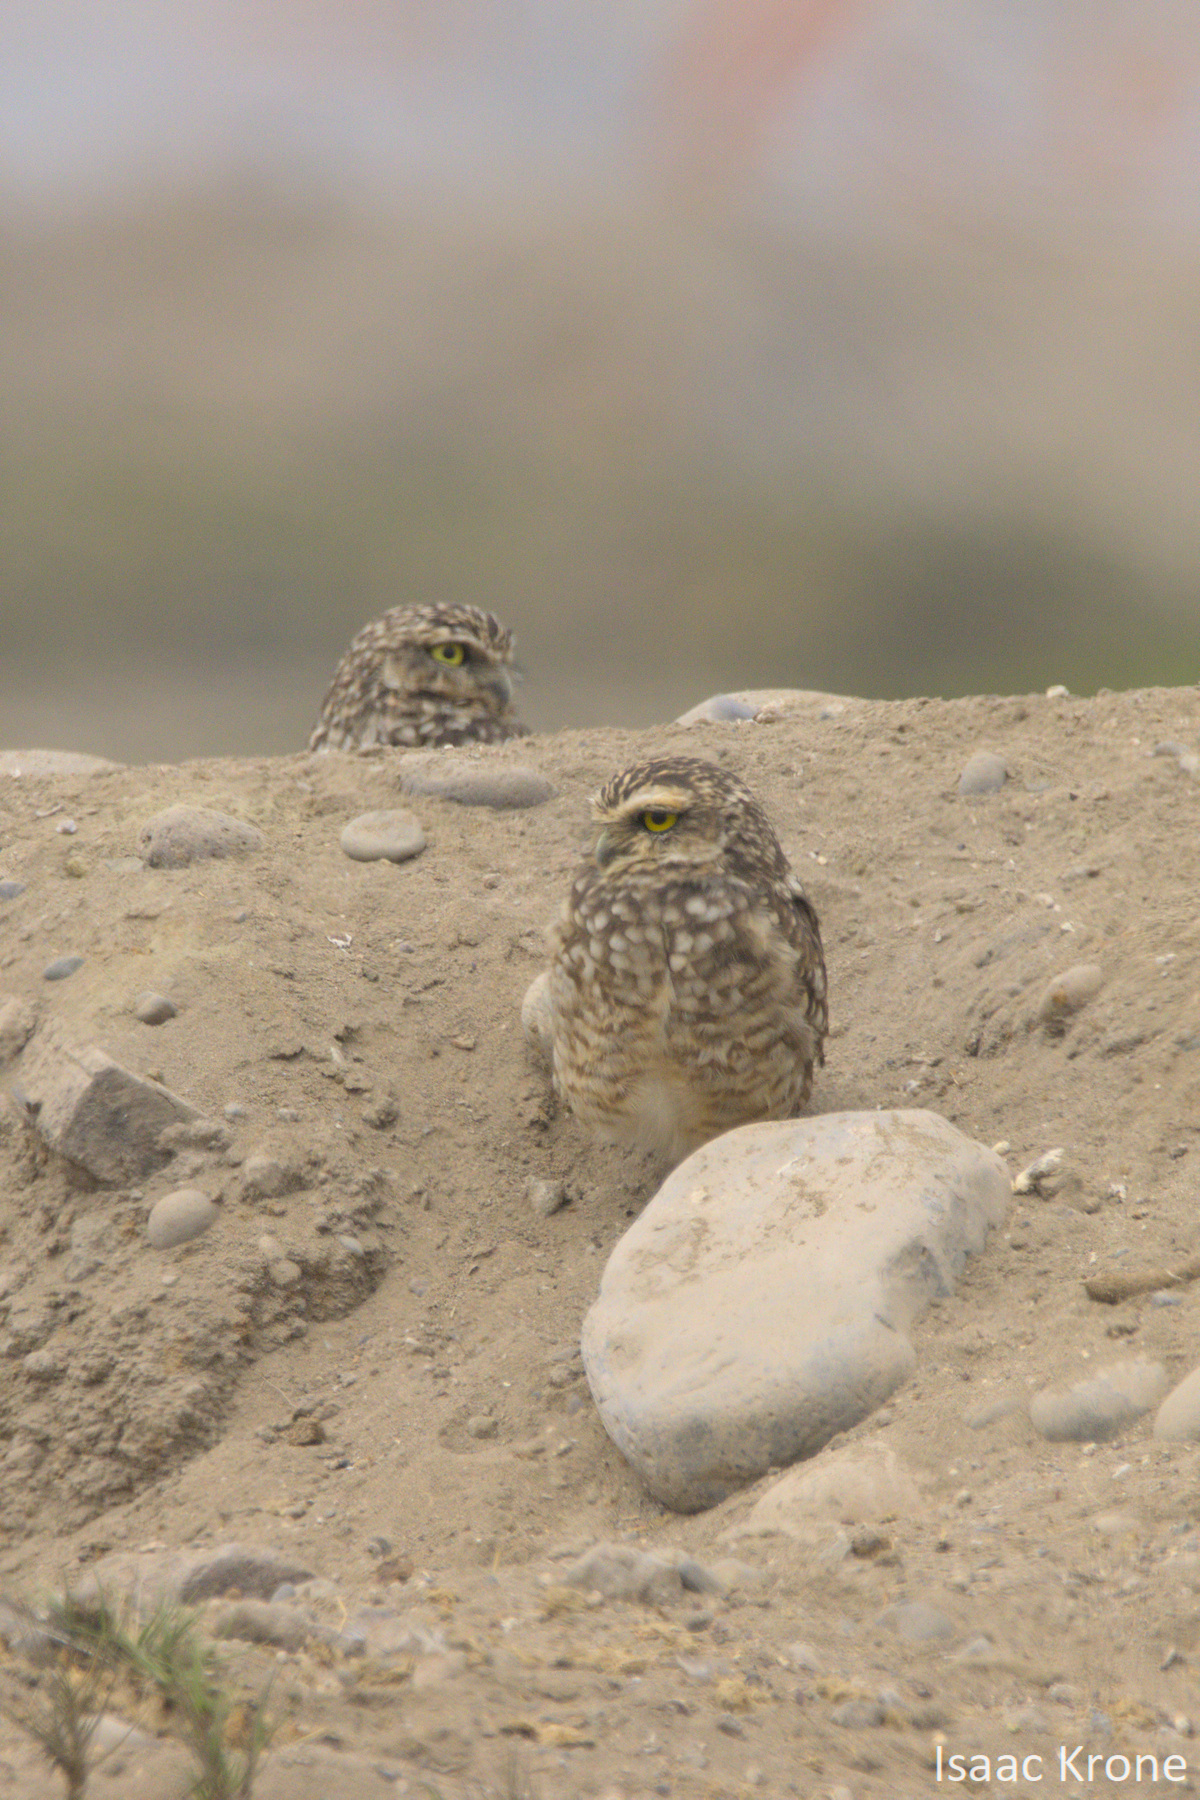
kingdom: Animalia
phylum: Chordata
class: Aves
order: Strigiformes
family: Strigidae
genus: Athene
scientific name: Athene cunicularia
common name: Burrowing owl
